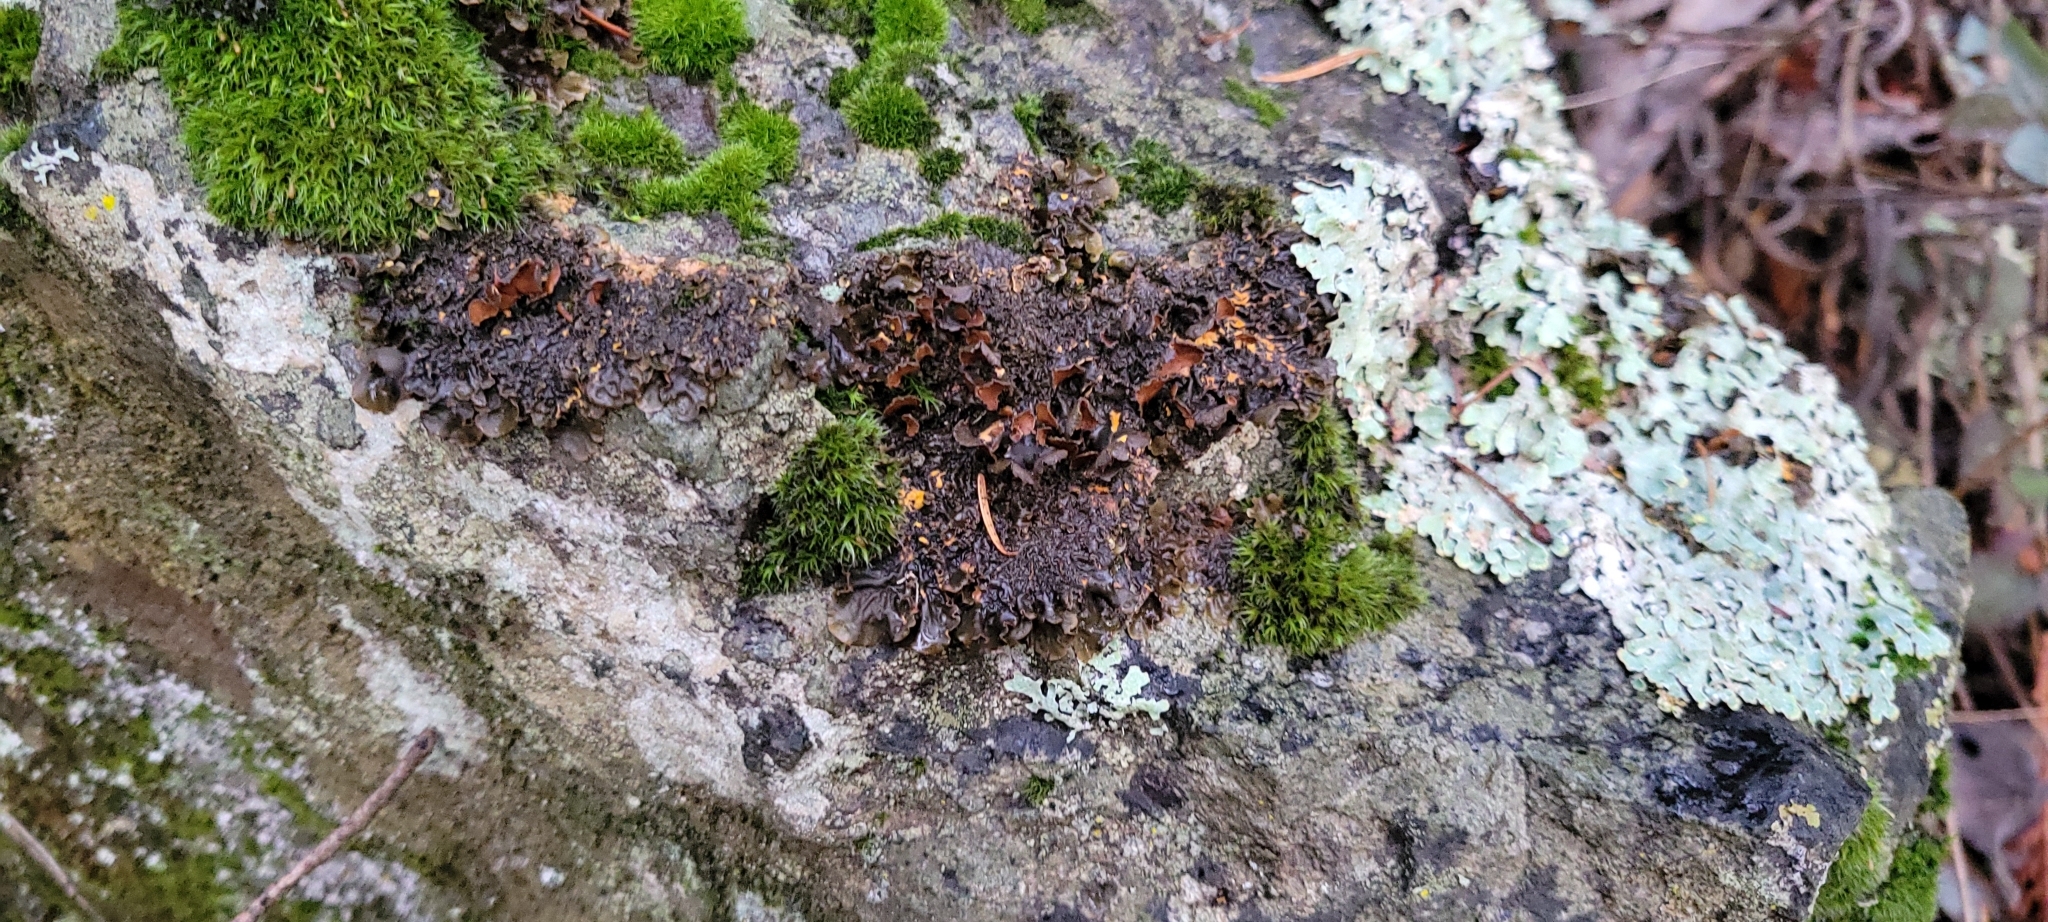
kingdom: Fungi
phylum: Ascomycota
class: Lecanoromycetes
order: Peltigerales
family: Nephromataceae
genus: Nephroma
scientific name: Nephroma laevigatum
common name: Mustard kidney lichen
